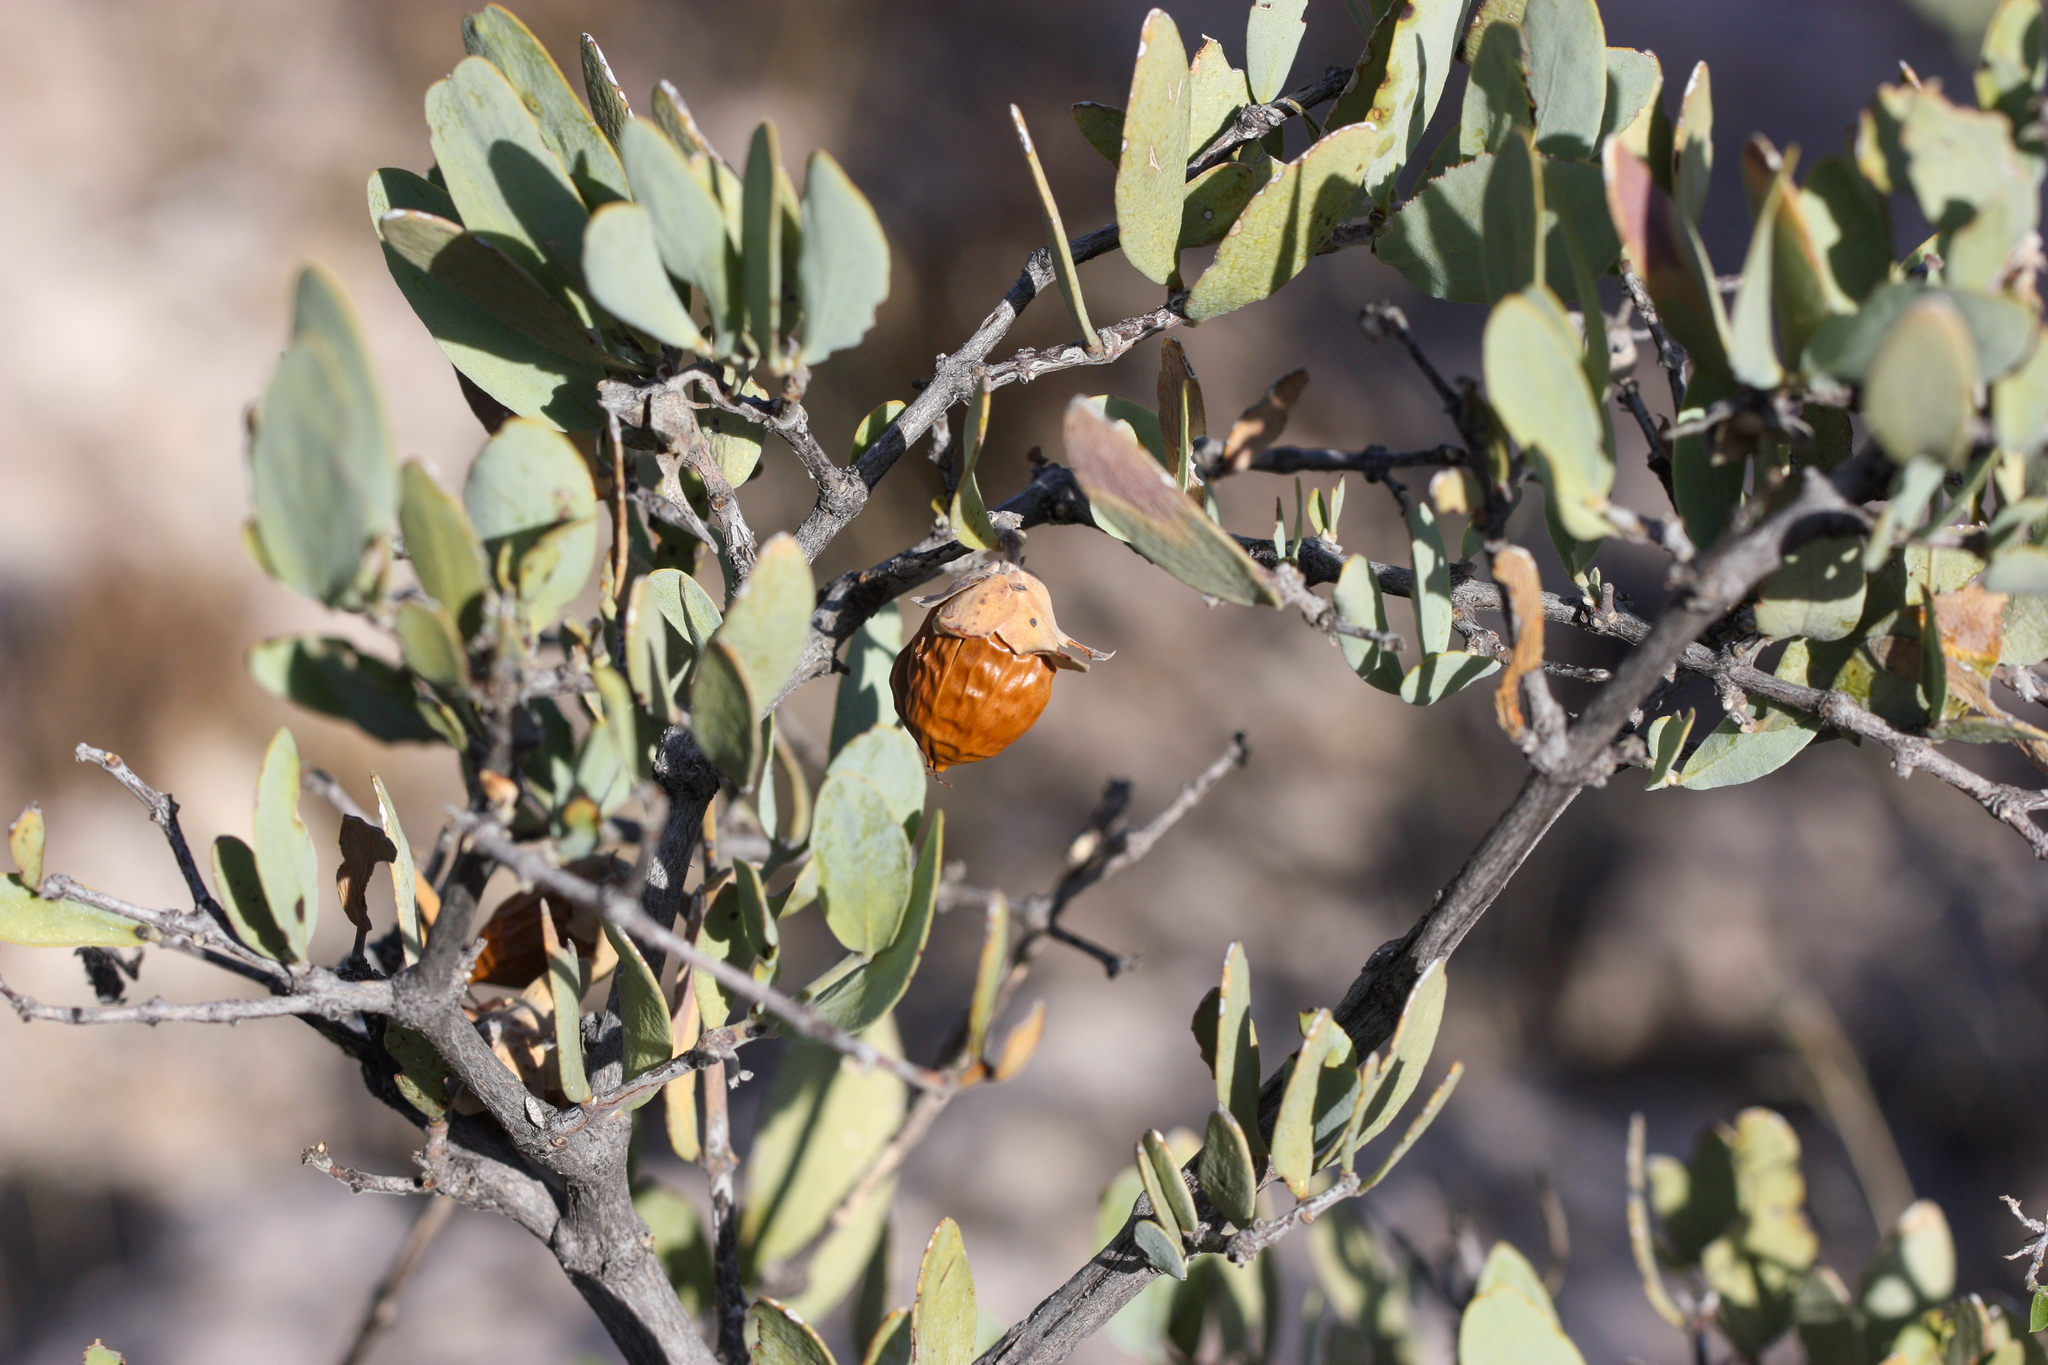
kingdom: Plantae
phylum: Tracheophyta
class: Magnoliopsida
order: Caryophyllales
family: Simmondsiaceae
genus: Simmondsia
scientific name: Simmondsia chinensis
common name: Jojoba
